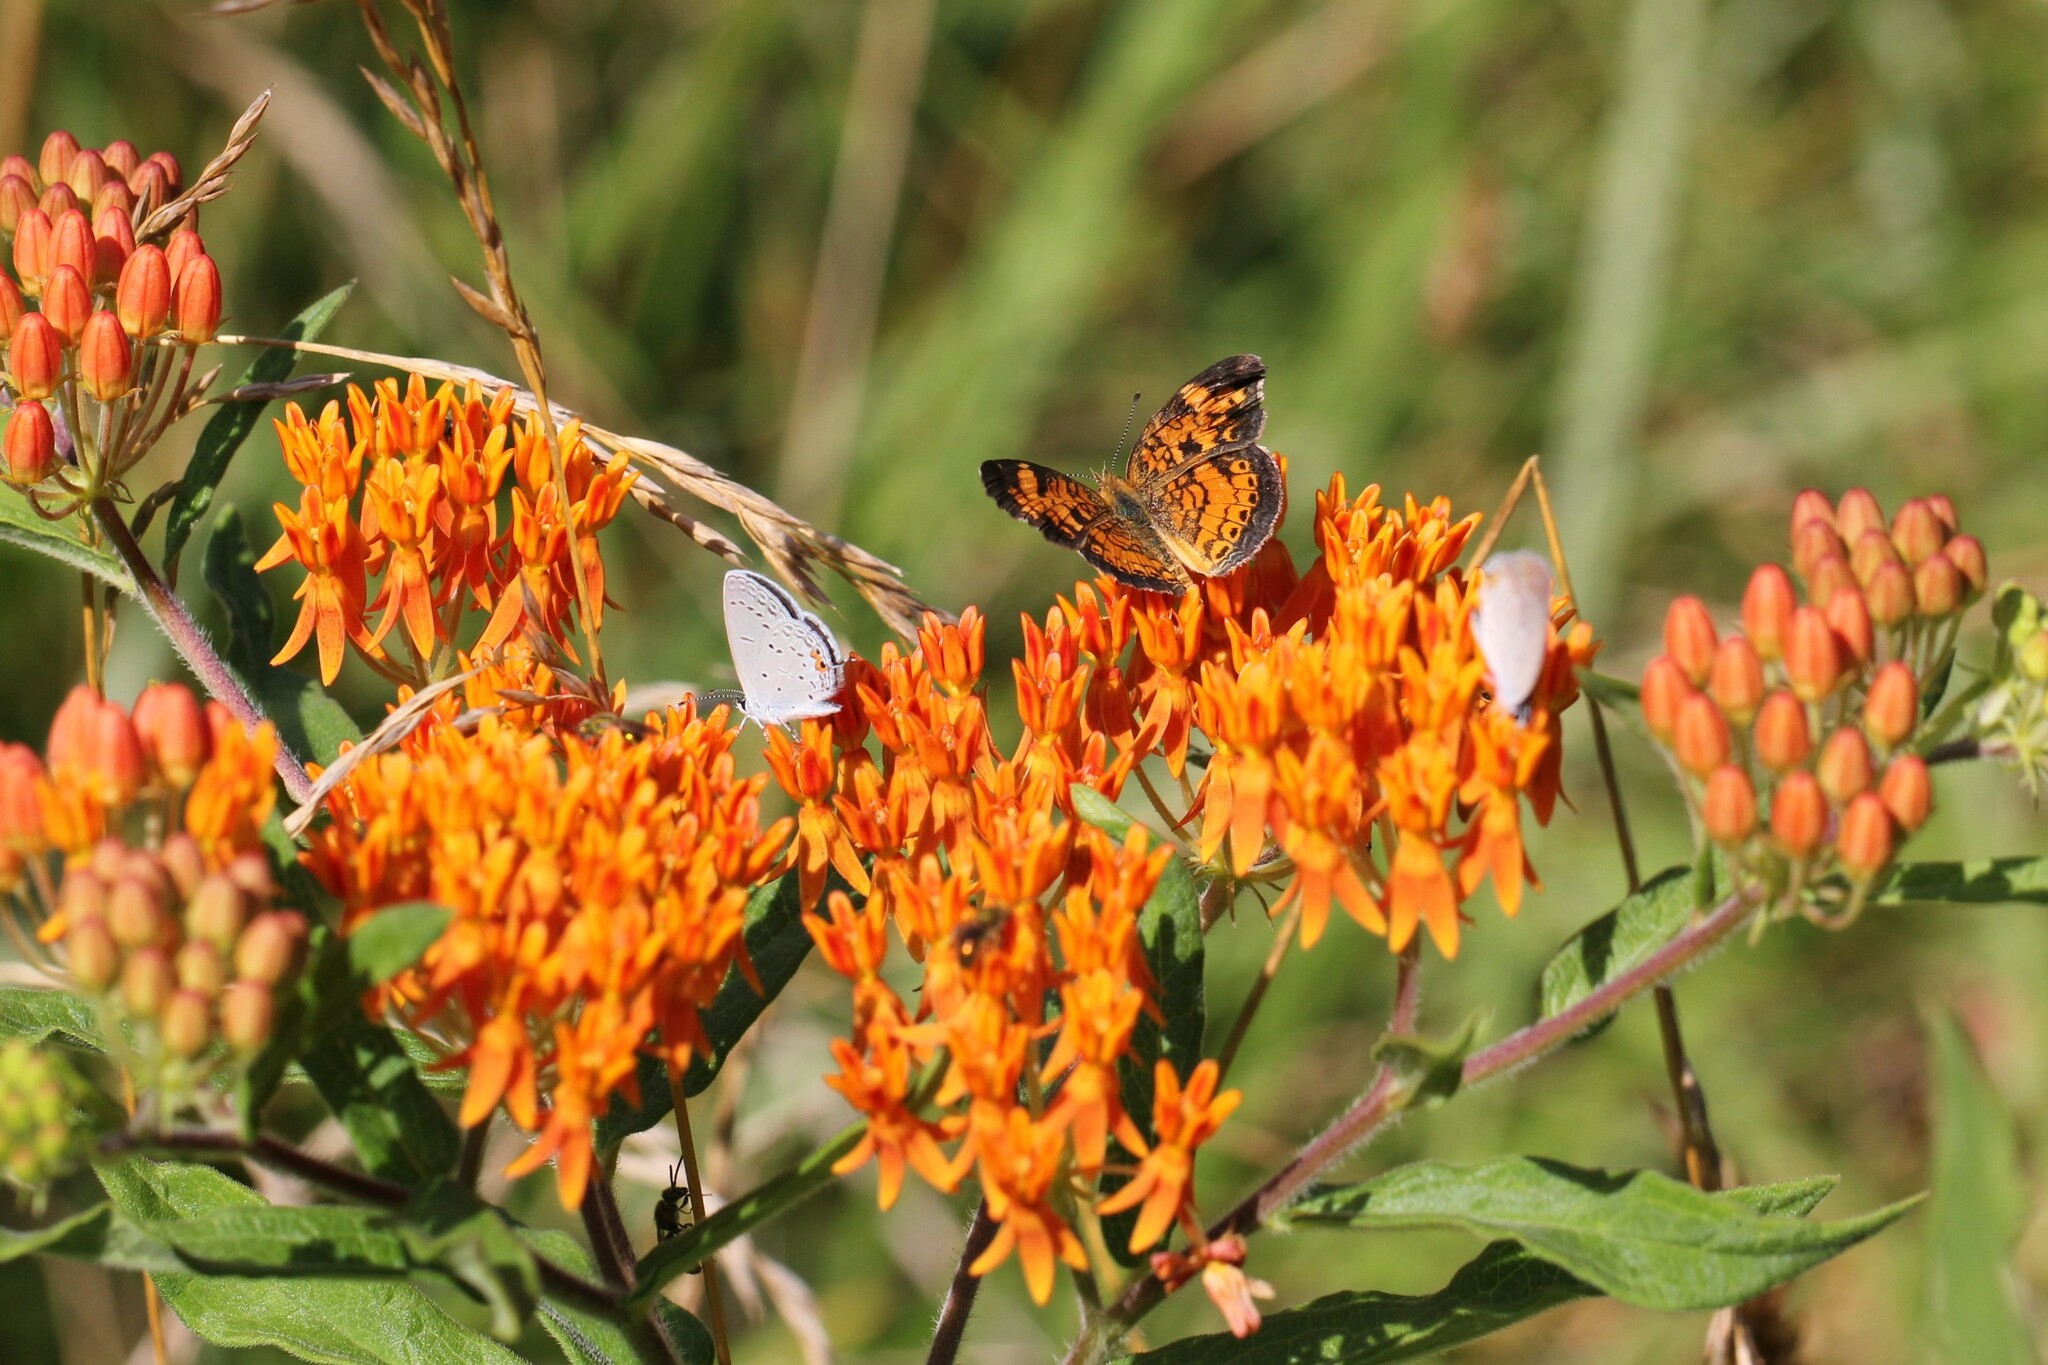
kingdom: Plantae
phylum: Tracheophyta
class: Magnoliopsida
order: Gentianales
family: Apocynaceae
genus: Asclepias
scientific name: Asclepias tuberosa
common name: Butterfly milkweed
